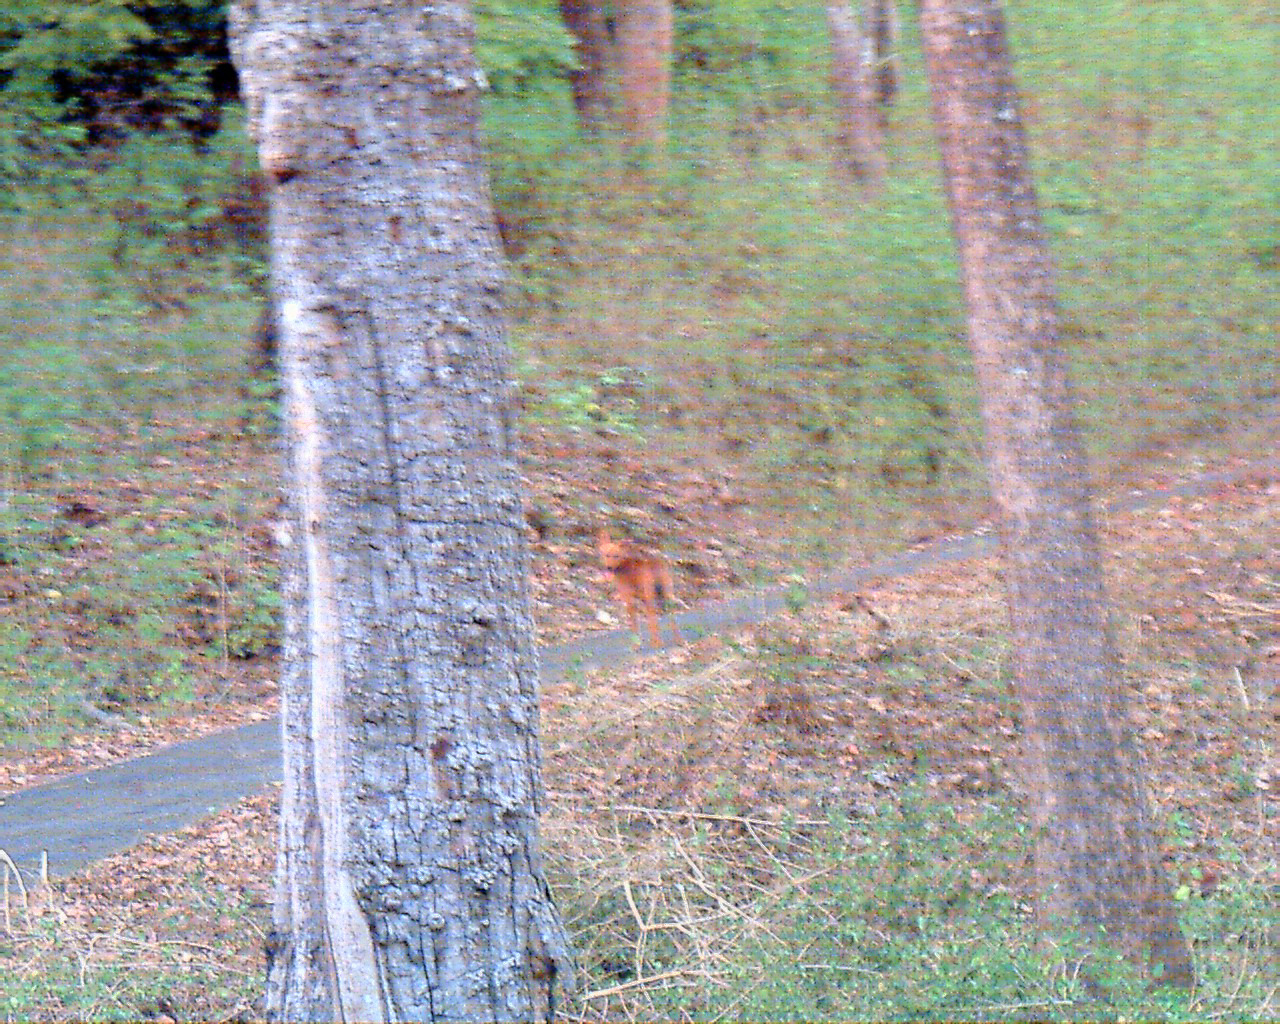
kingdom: Animalia
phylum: Chordata
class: Mammalia
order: Carnivora
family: Canidae
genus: Cuon
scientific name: Cuon alpinus
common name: Dhole
